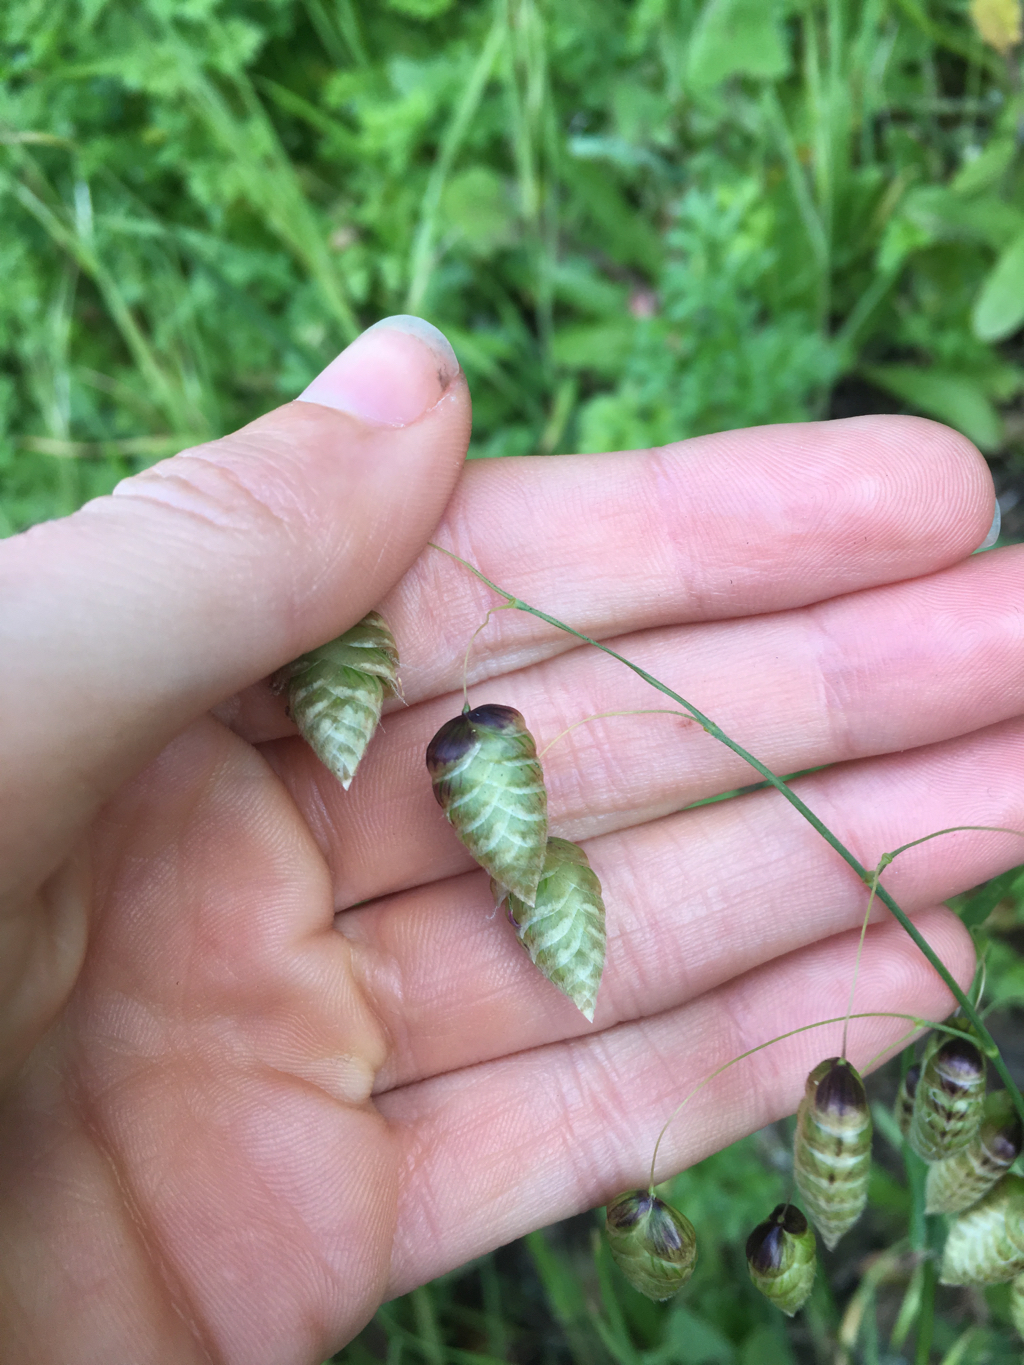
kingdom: Plantae
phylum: Tracheophyta
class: Liliopsida
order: Poales
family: Poaceae
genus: Briza
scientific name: Briza maxima
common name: Big quakinggrass
